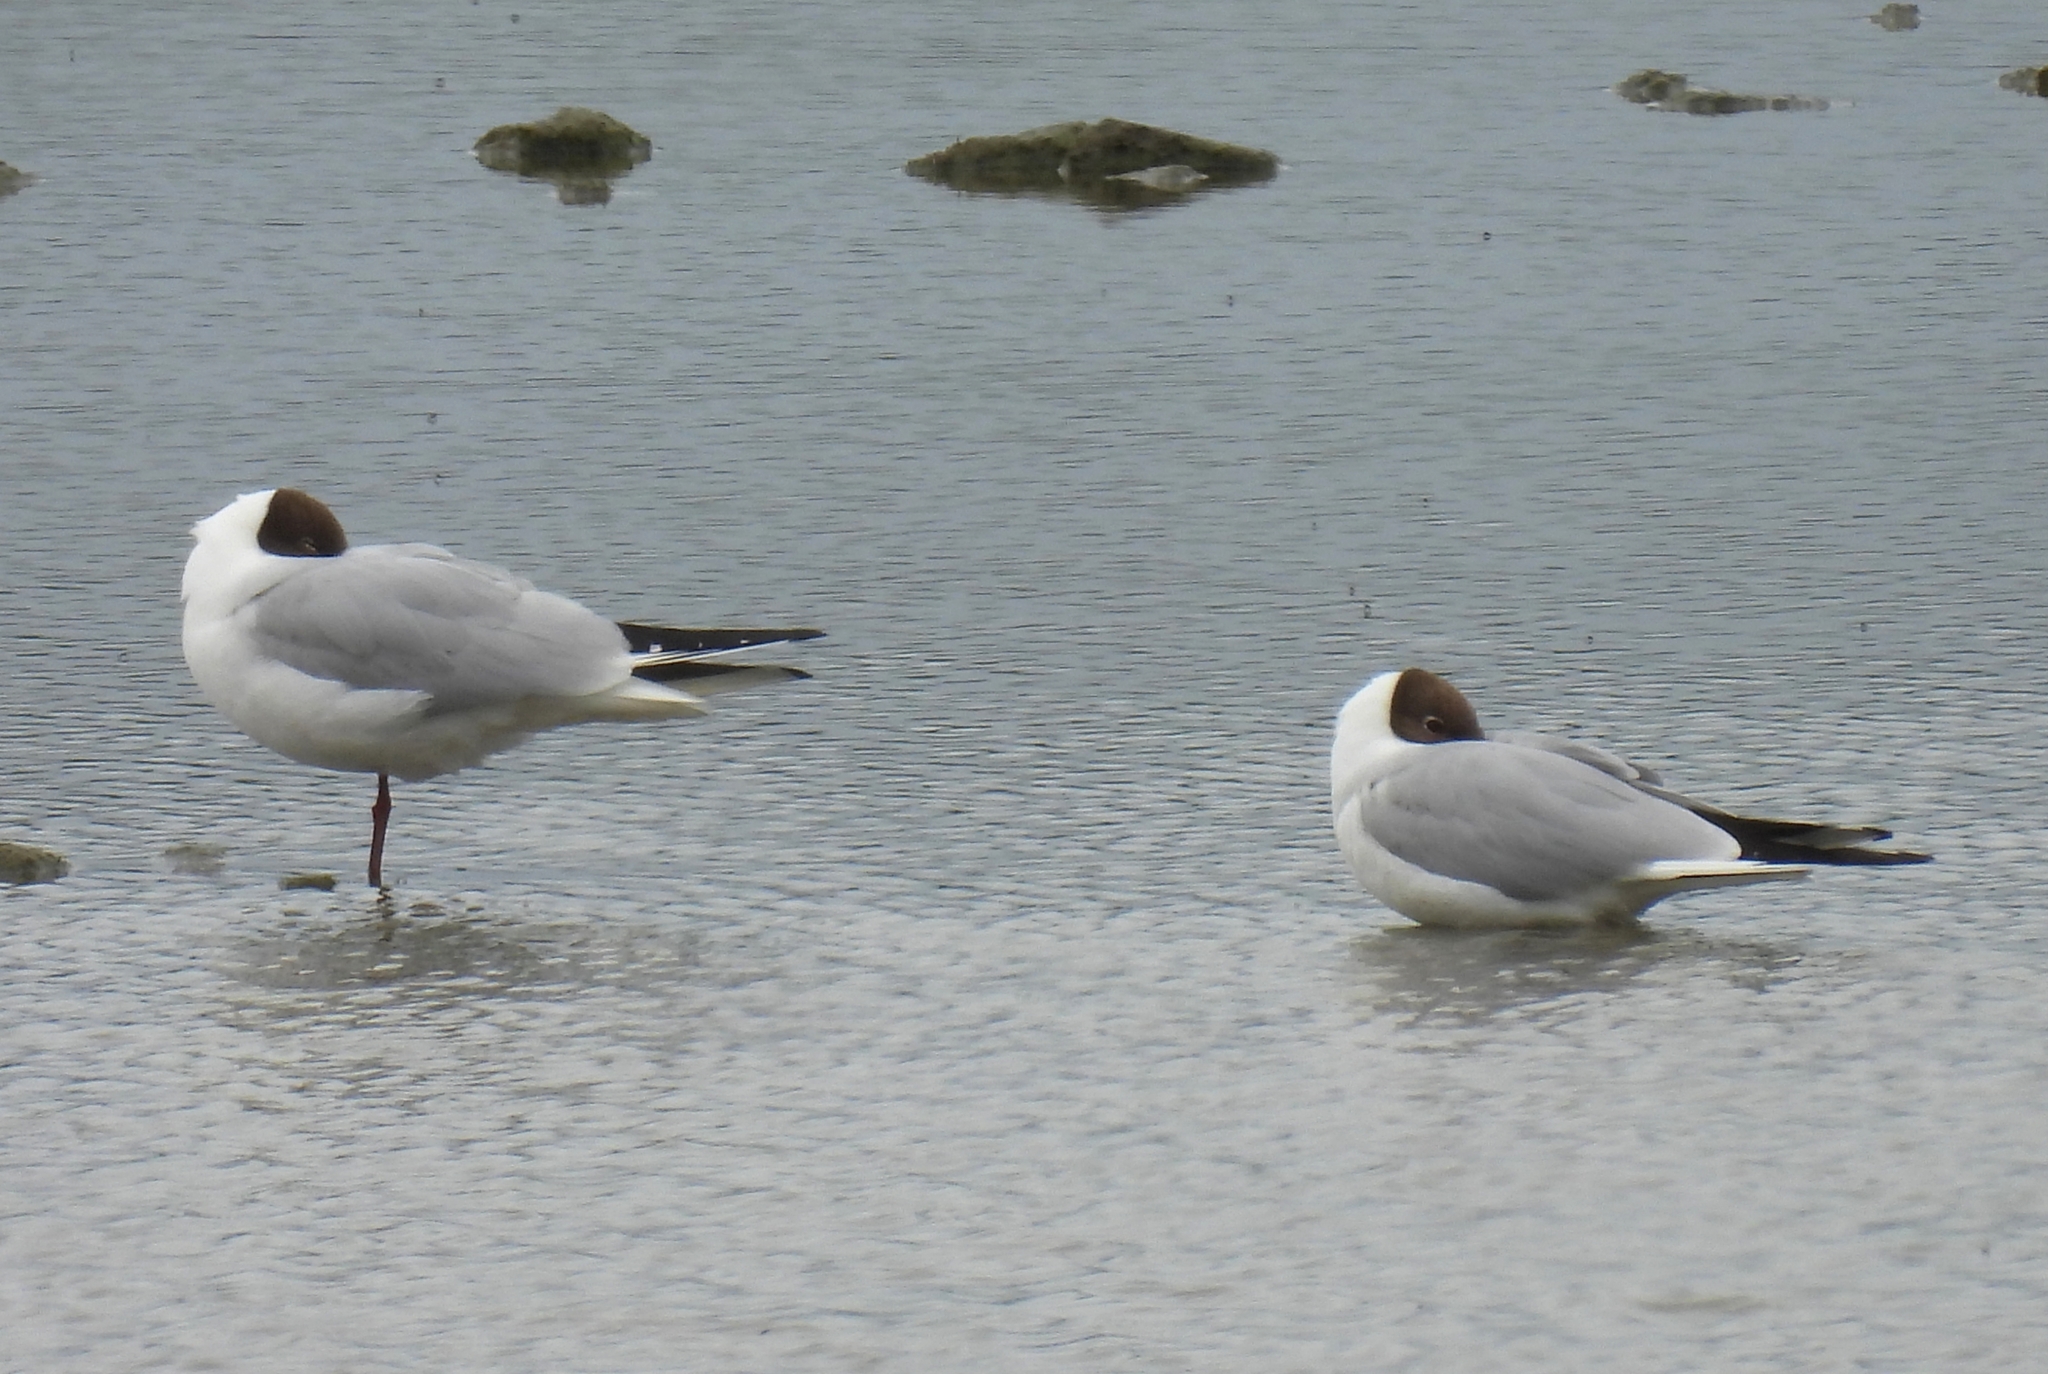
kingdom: Animalia
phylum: Chordata
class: Aves
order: Charadriiformes
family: Laridae
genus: Chroicocephalus
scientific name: Chroicocephalus ridibundus
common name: Black-headed gull
